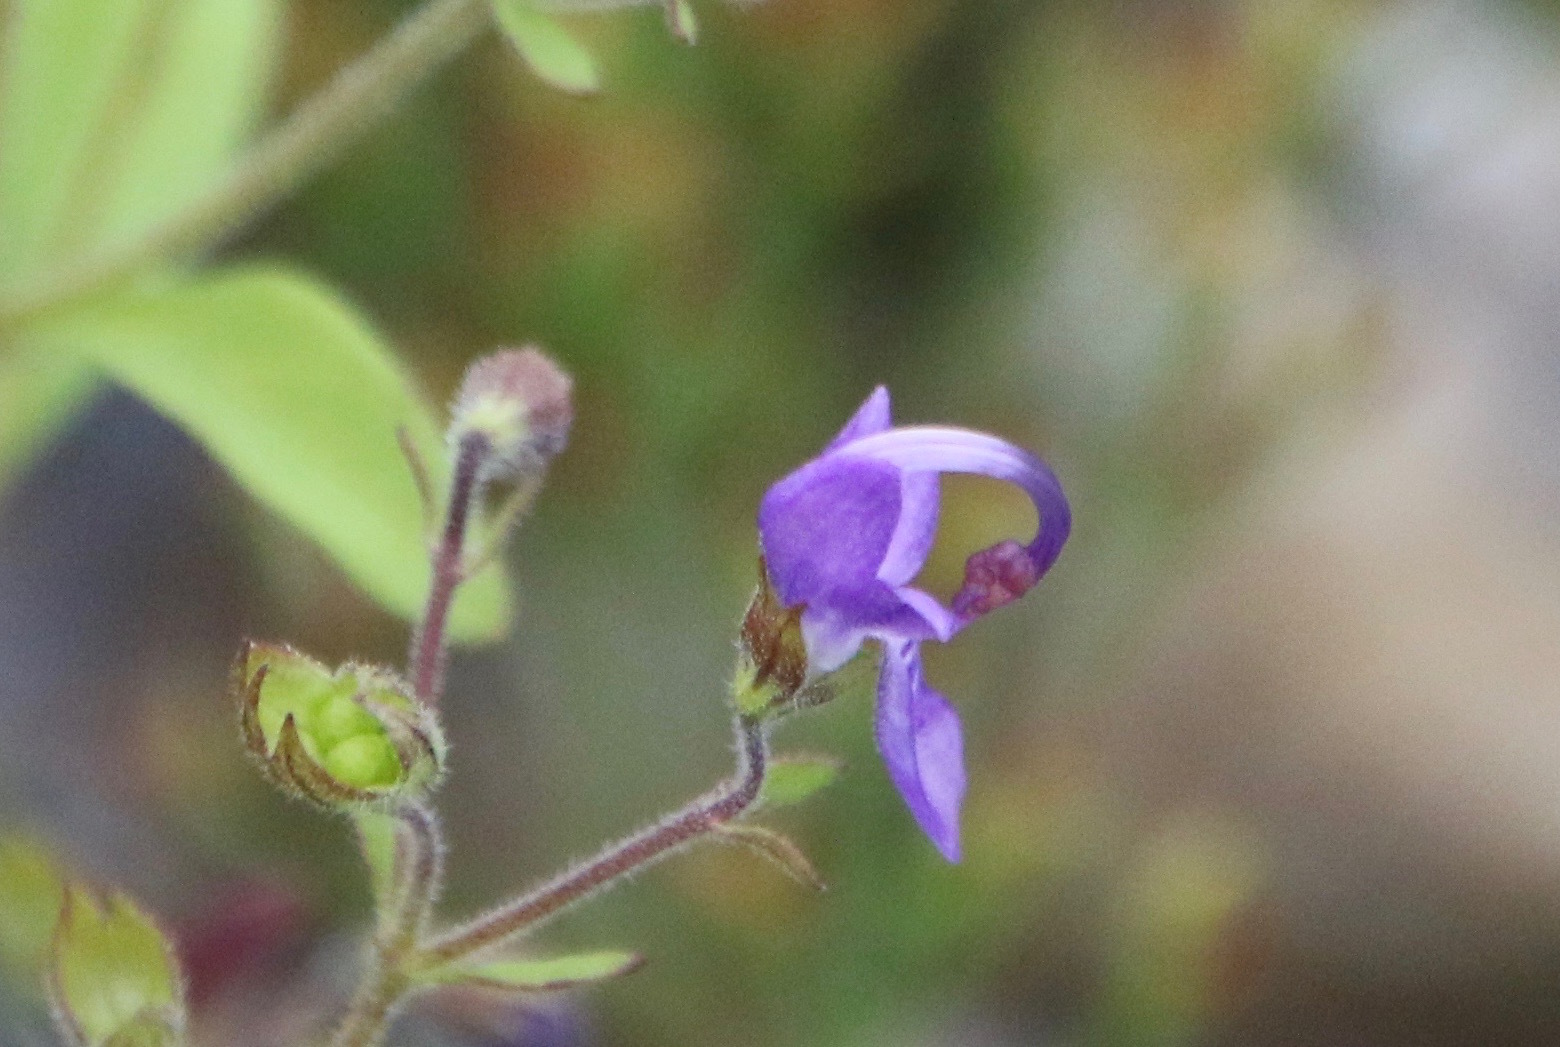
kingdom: Plantae
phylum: Tracheophyta
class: Magnoliopsida
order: Lamiales
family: Lamiaceae
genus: Trichostema
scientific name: Trichostema dichotomum
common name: Bastard pennyroyal
